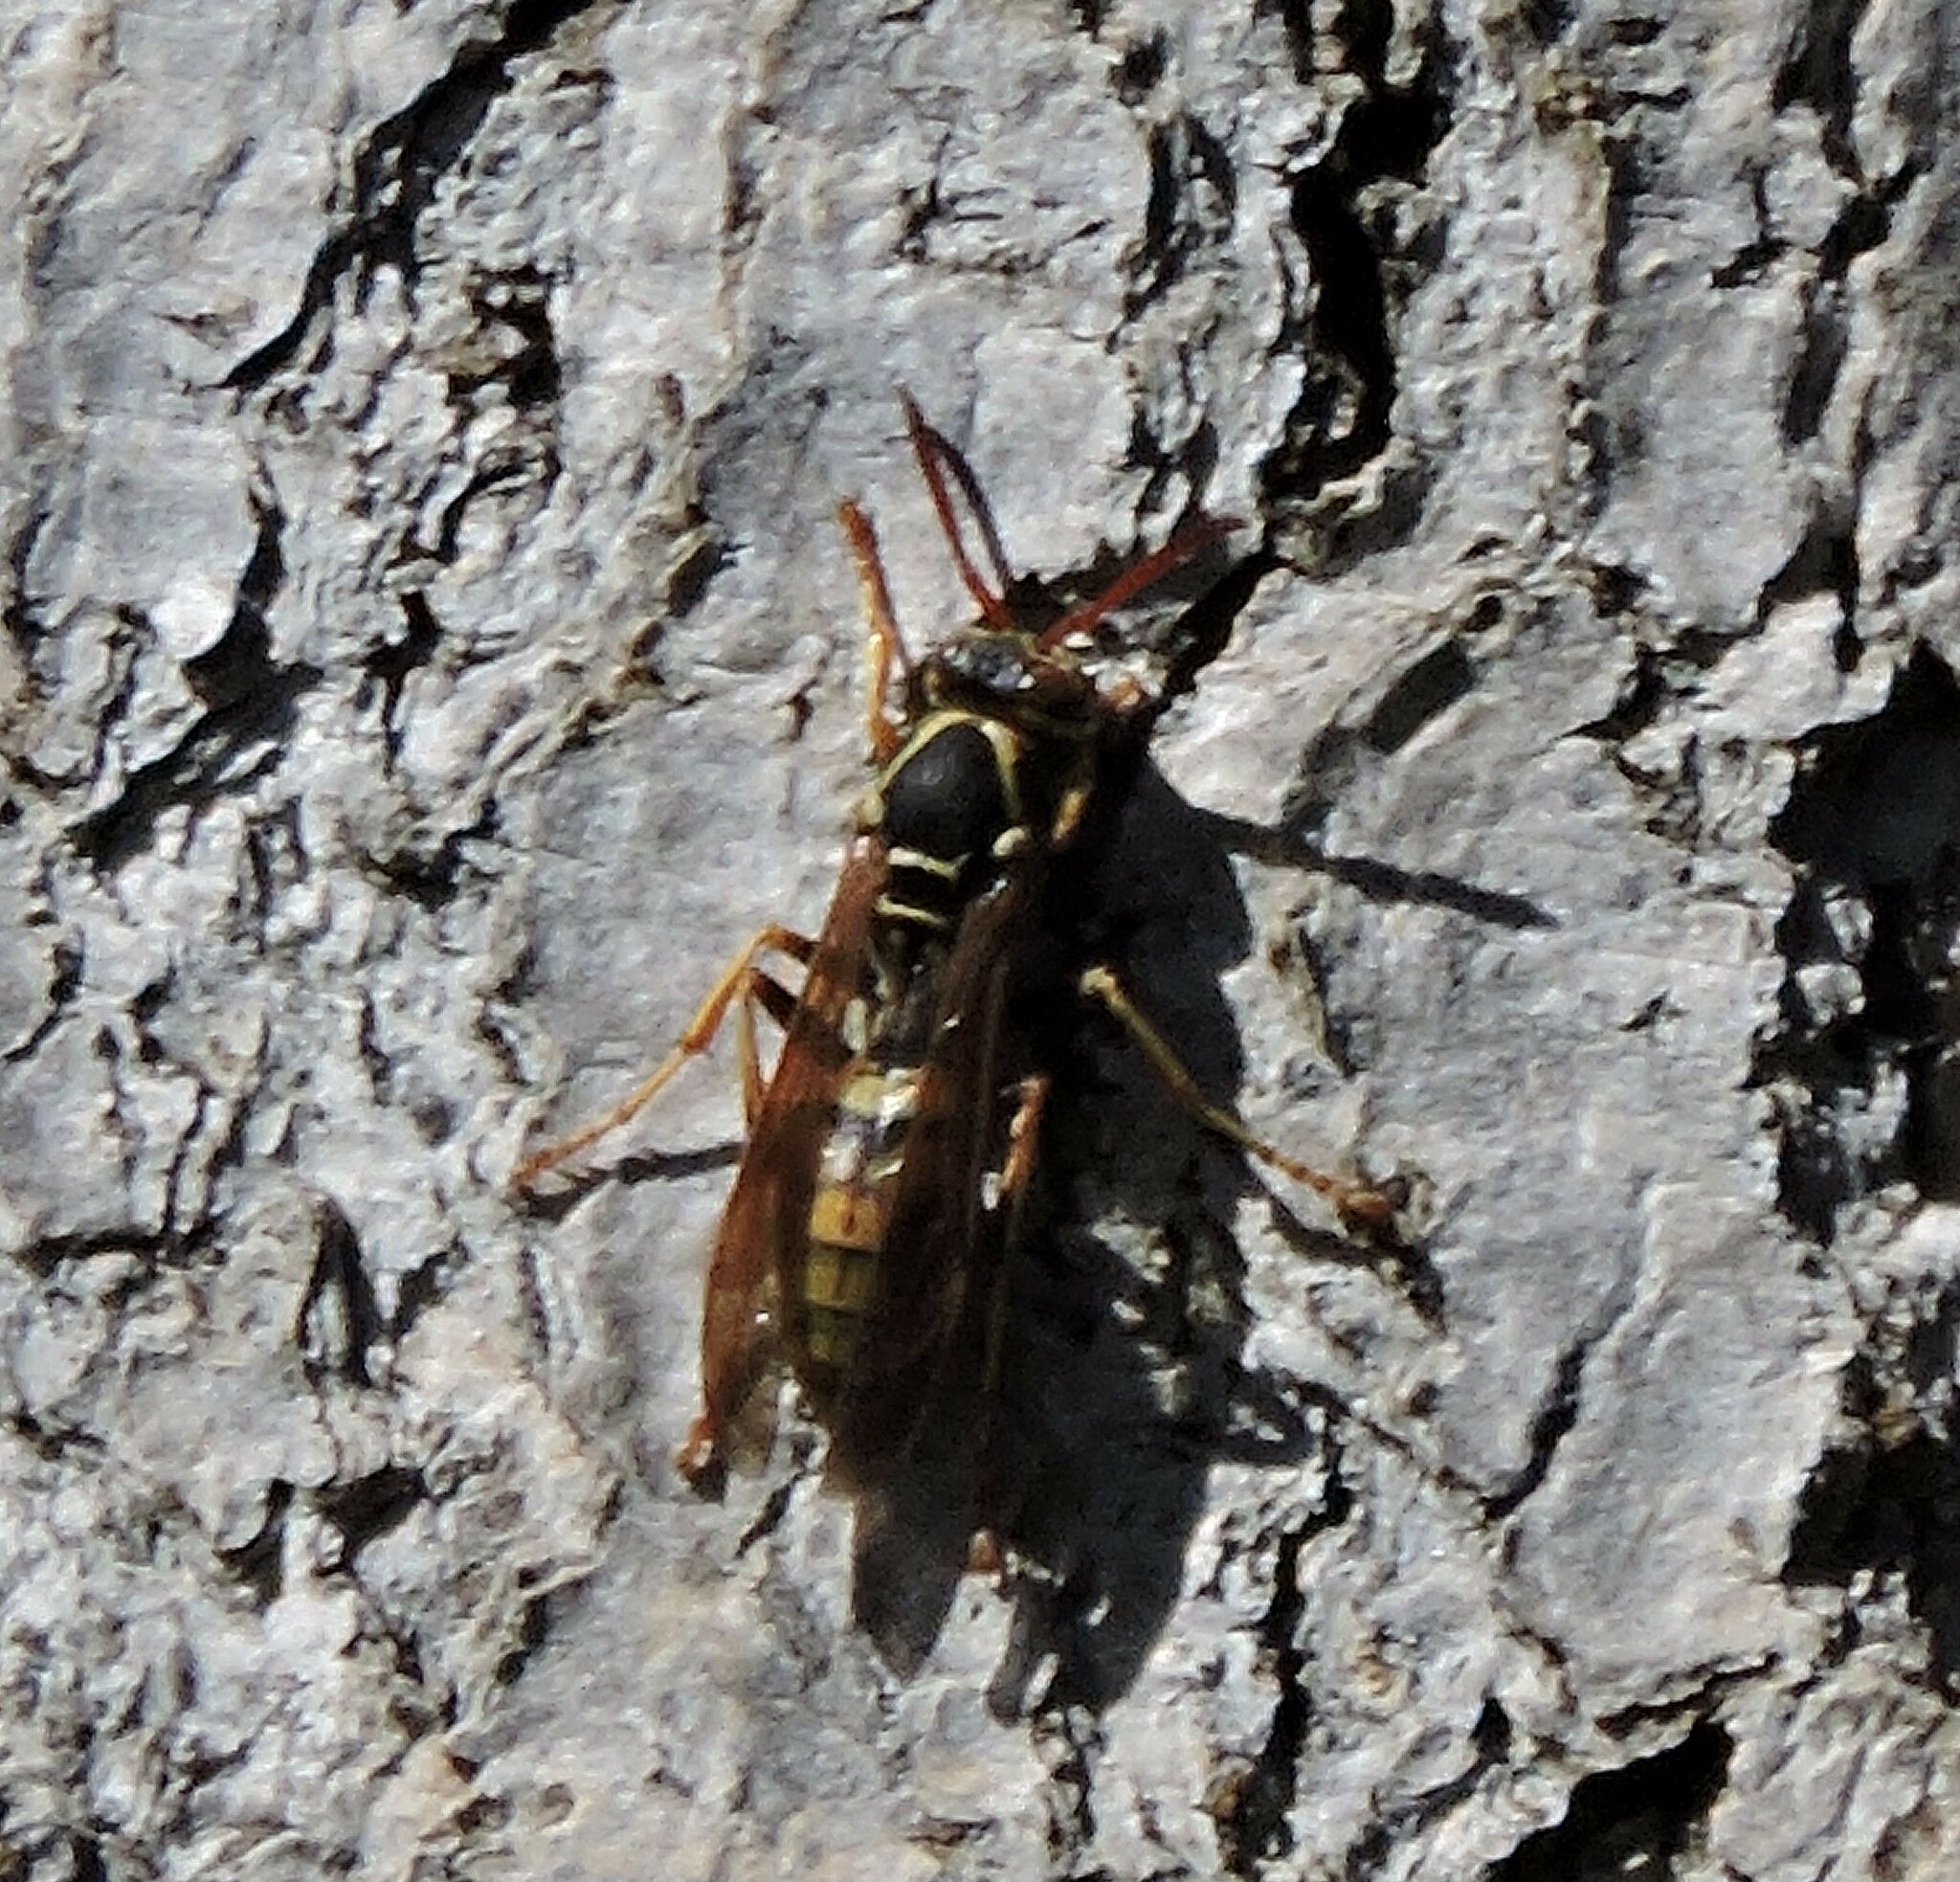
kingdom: Animalia
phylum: Arthropoda
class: Insecta
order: Hymenoptera
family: Eumenidae
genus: Polistes
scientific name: Polistes aurifer
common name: Paper wasp
